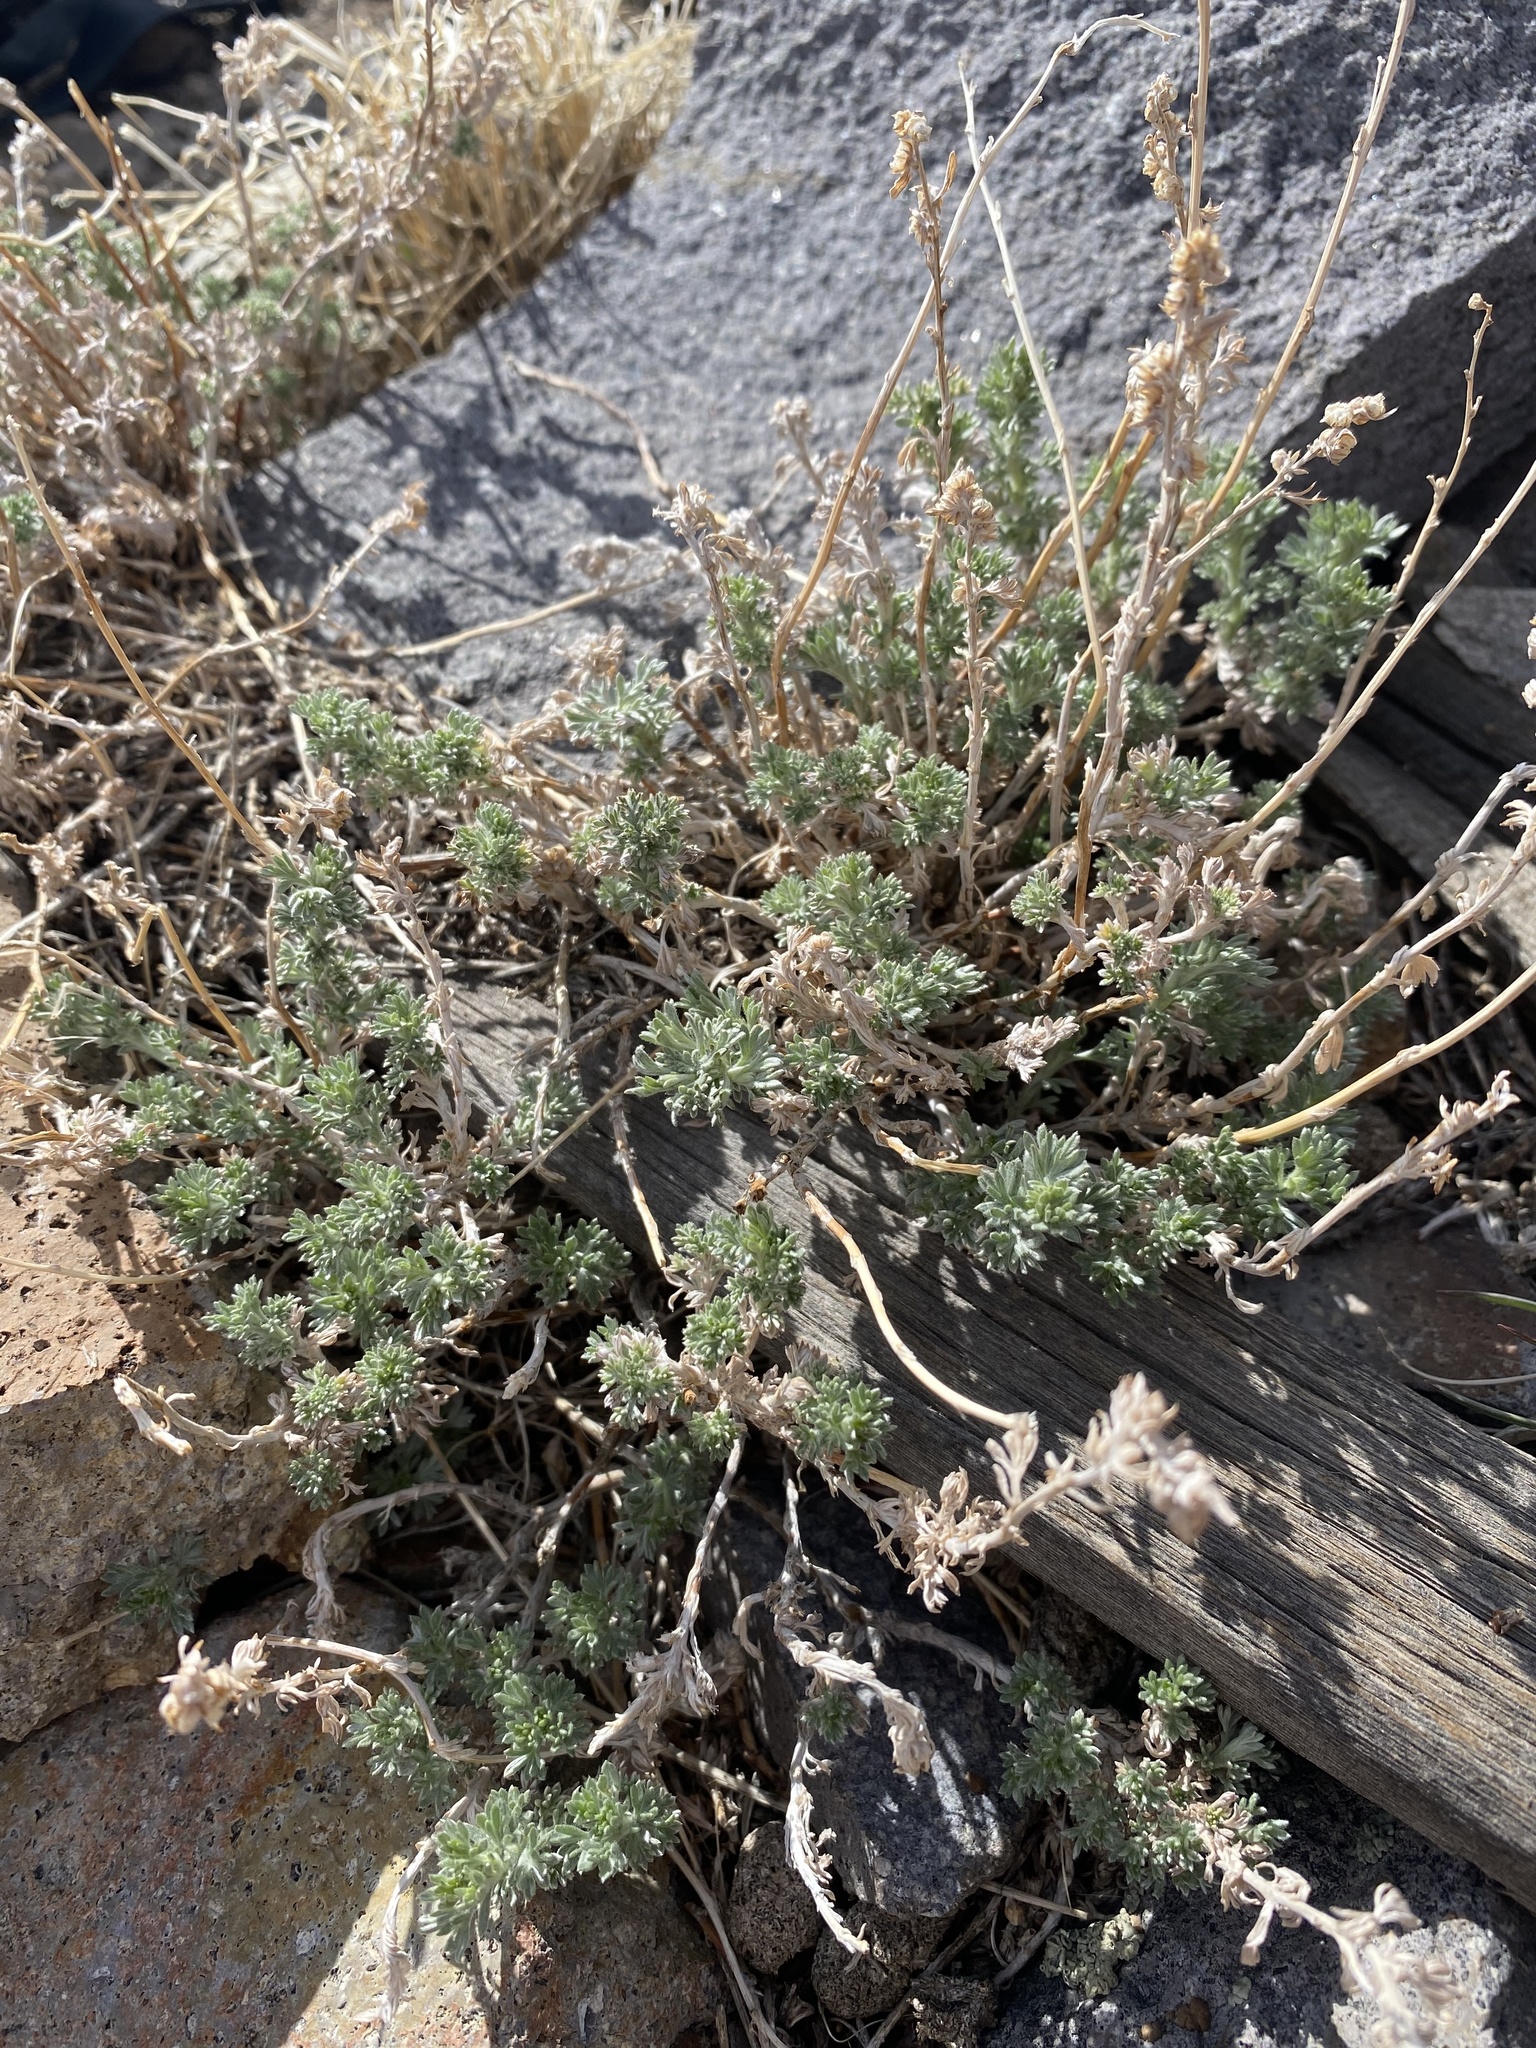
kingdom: Plantae
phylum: Tracheophyta
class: Magnoliopsida
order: Asterales
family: Asteraceae
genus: Artemisia
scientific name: Artemisia frigida
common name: Prairie sagewort
